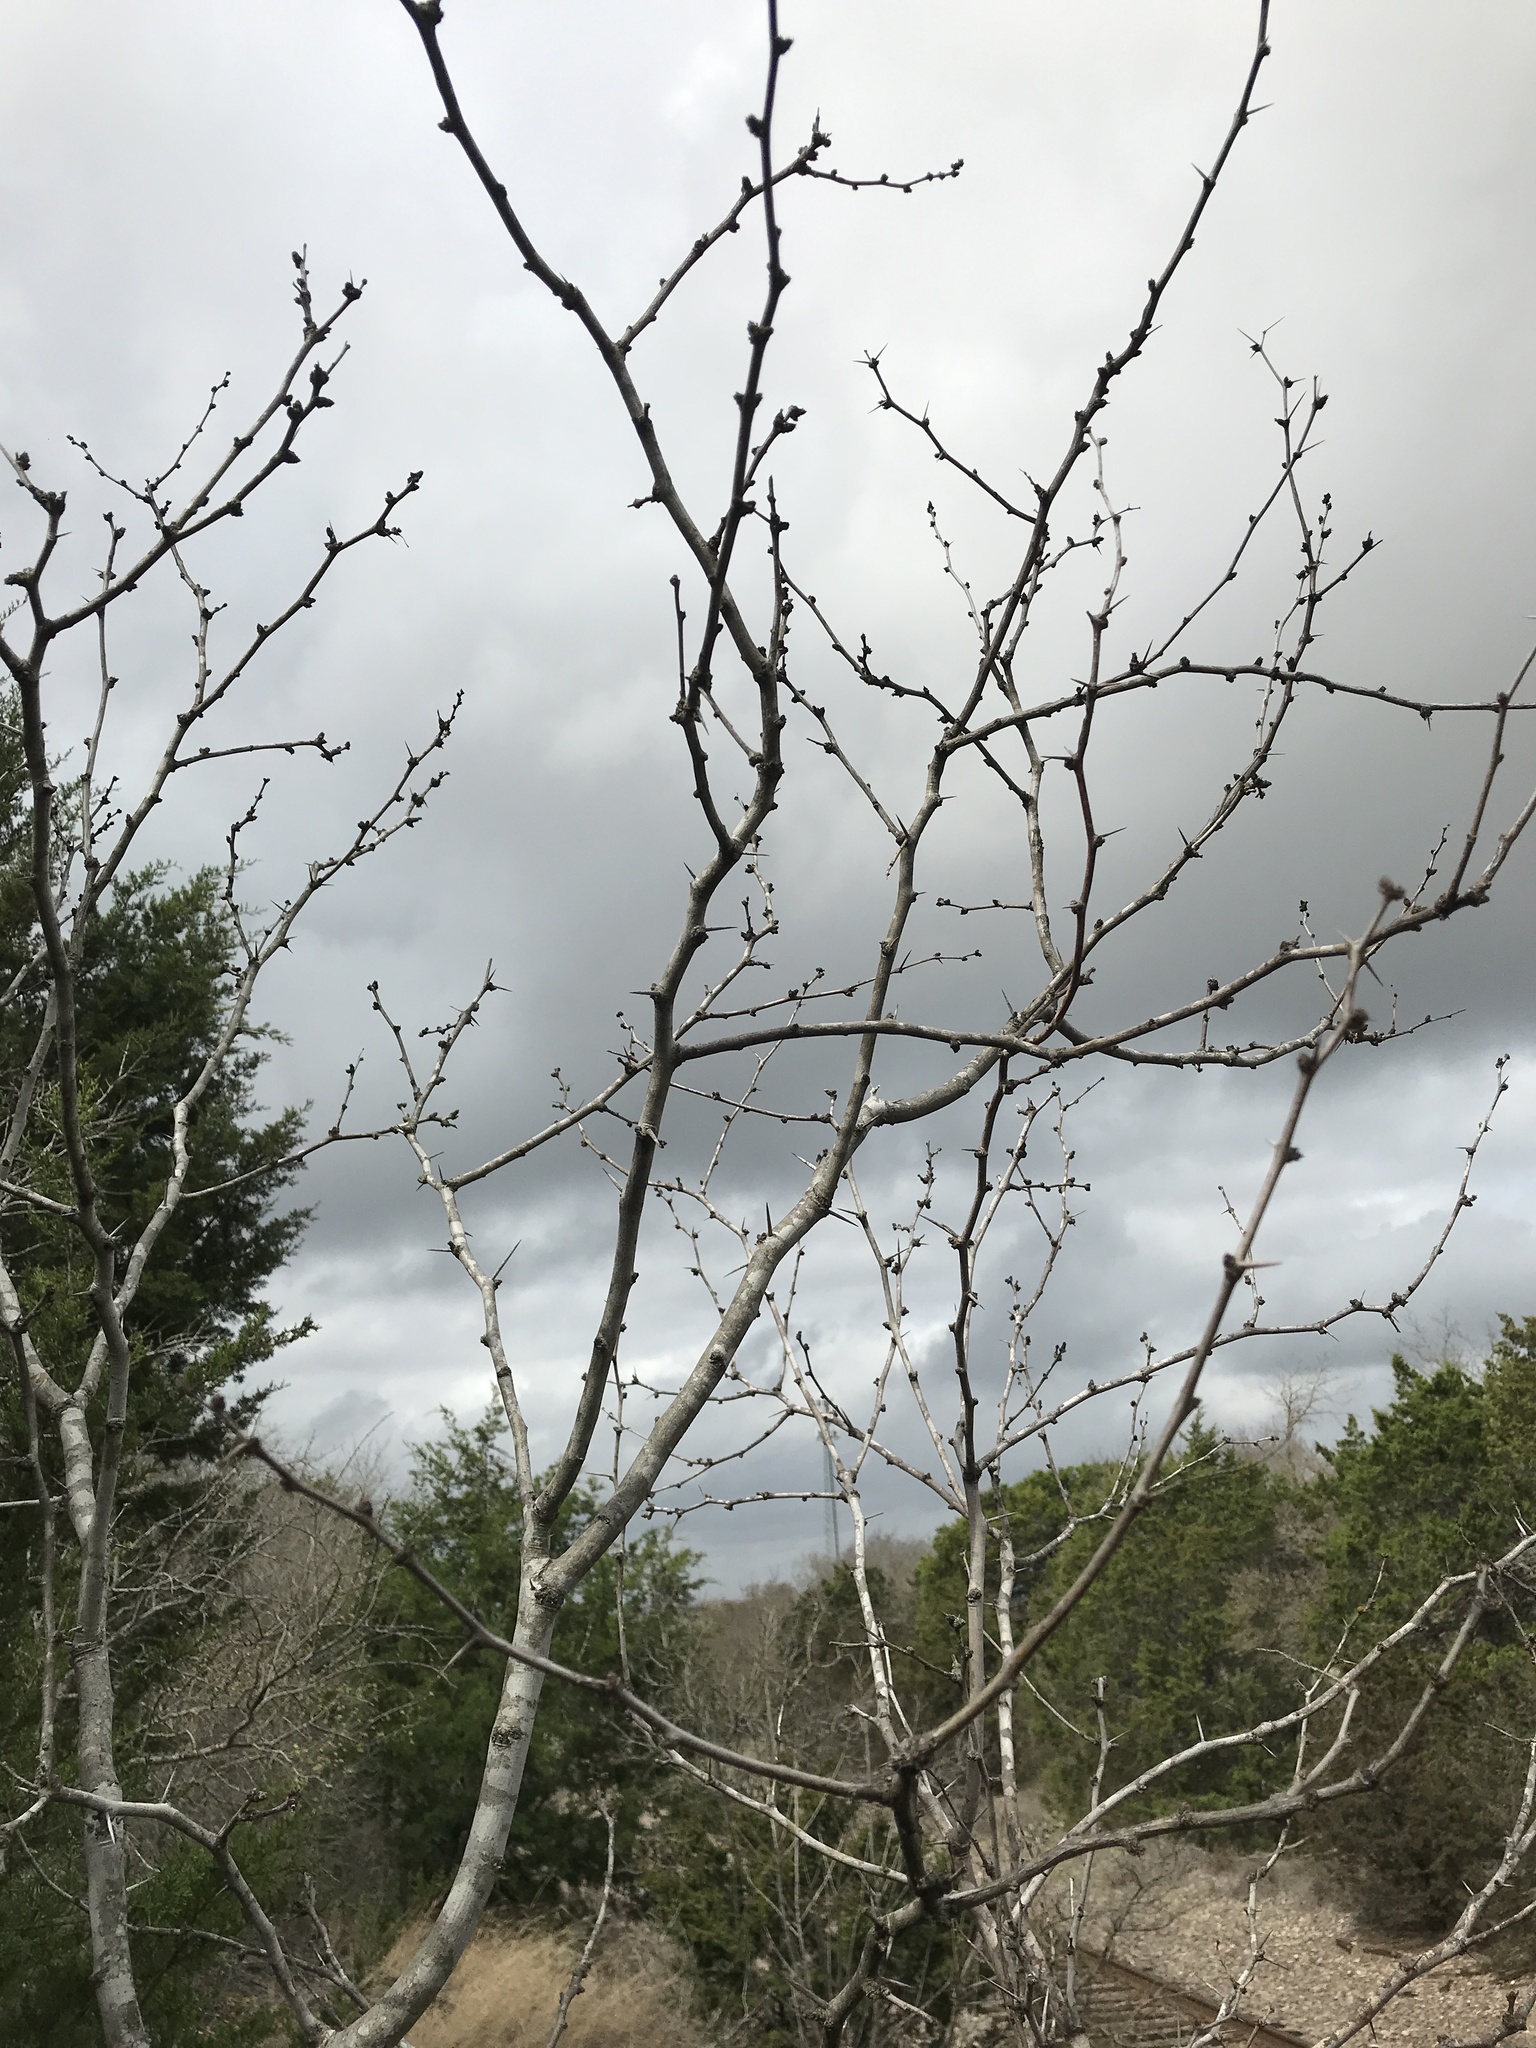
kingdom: Plantae
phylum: Tracheophyta
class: Magnoliopsida
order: Fabales
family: Fabaceae
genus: Prosopis
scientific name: Prosopis glandulosa
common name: Honey mesquite
